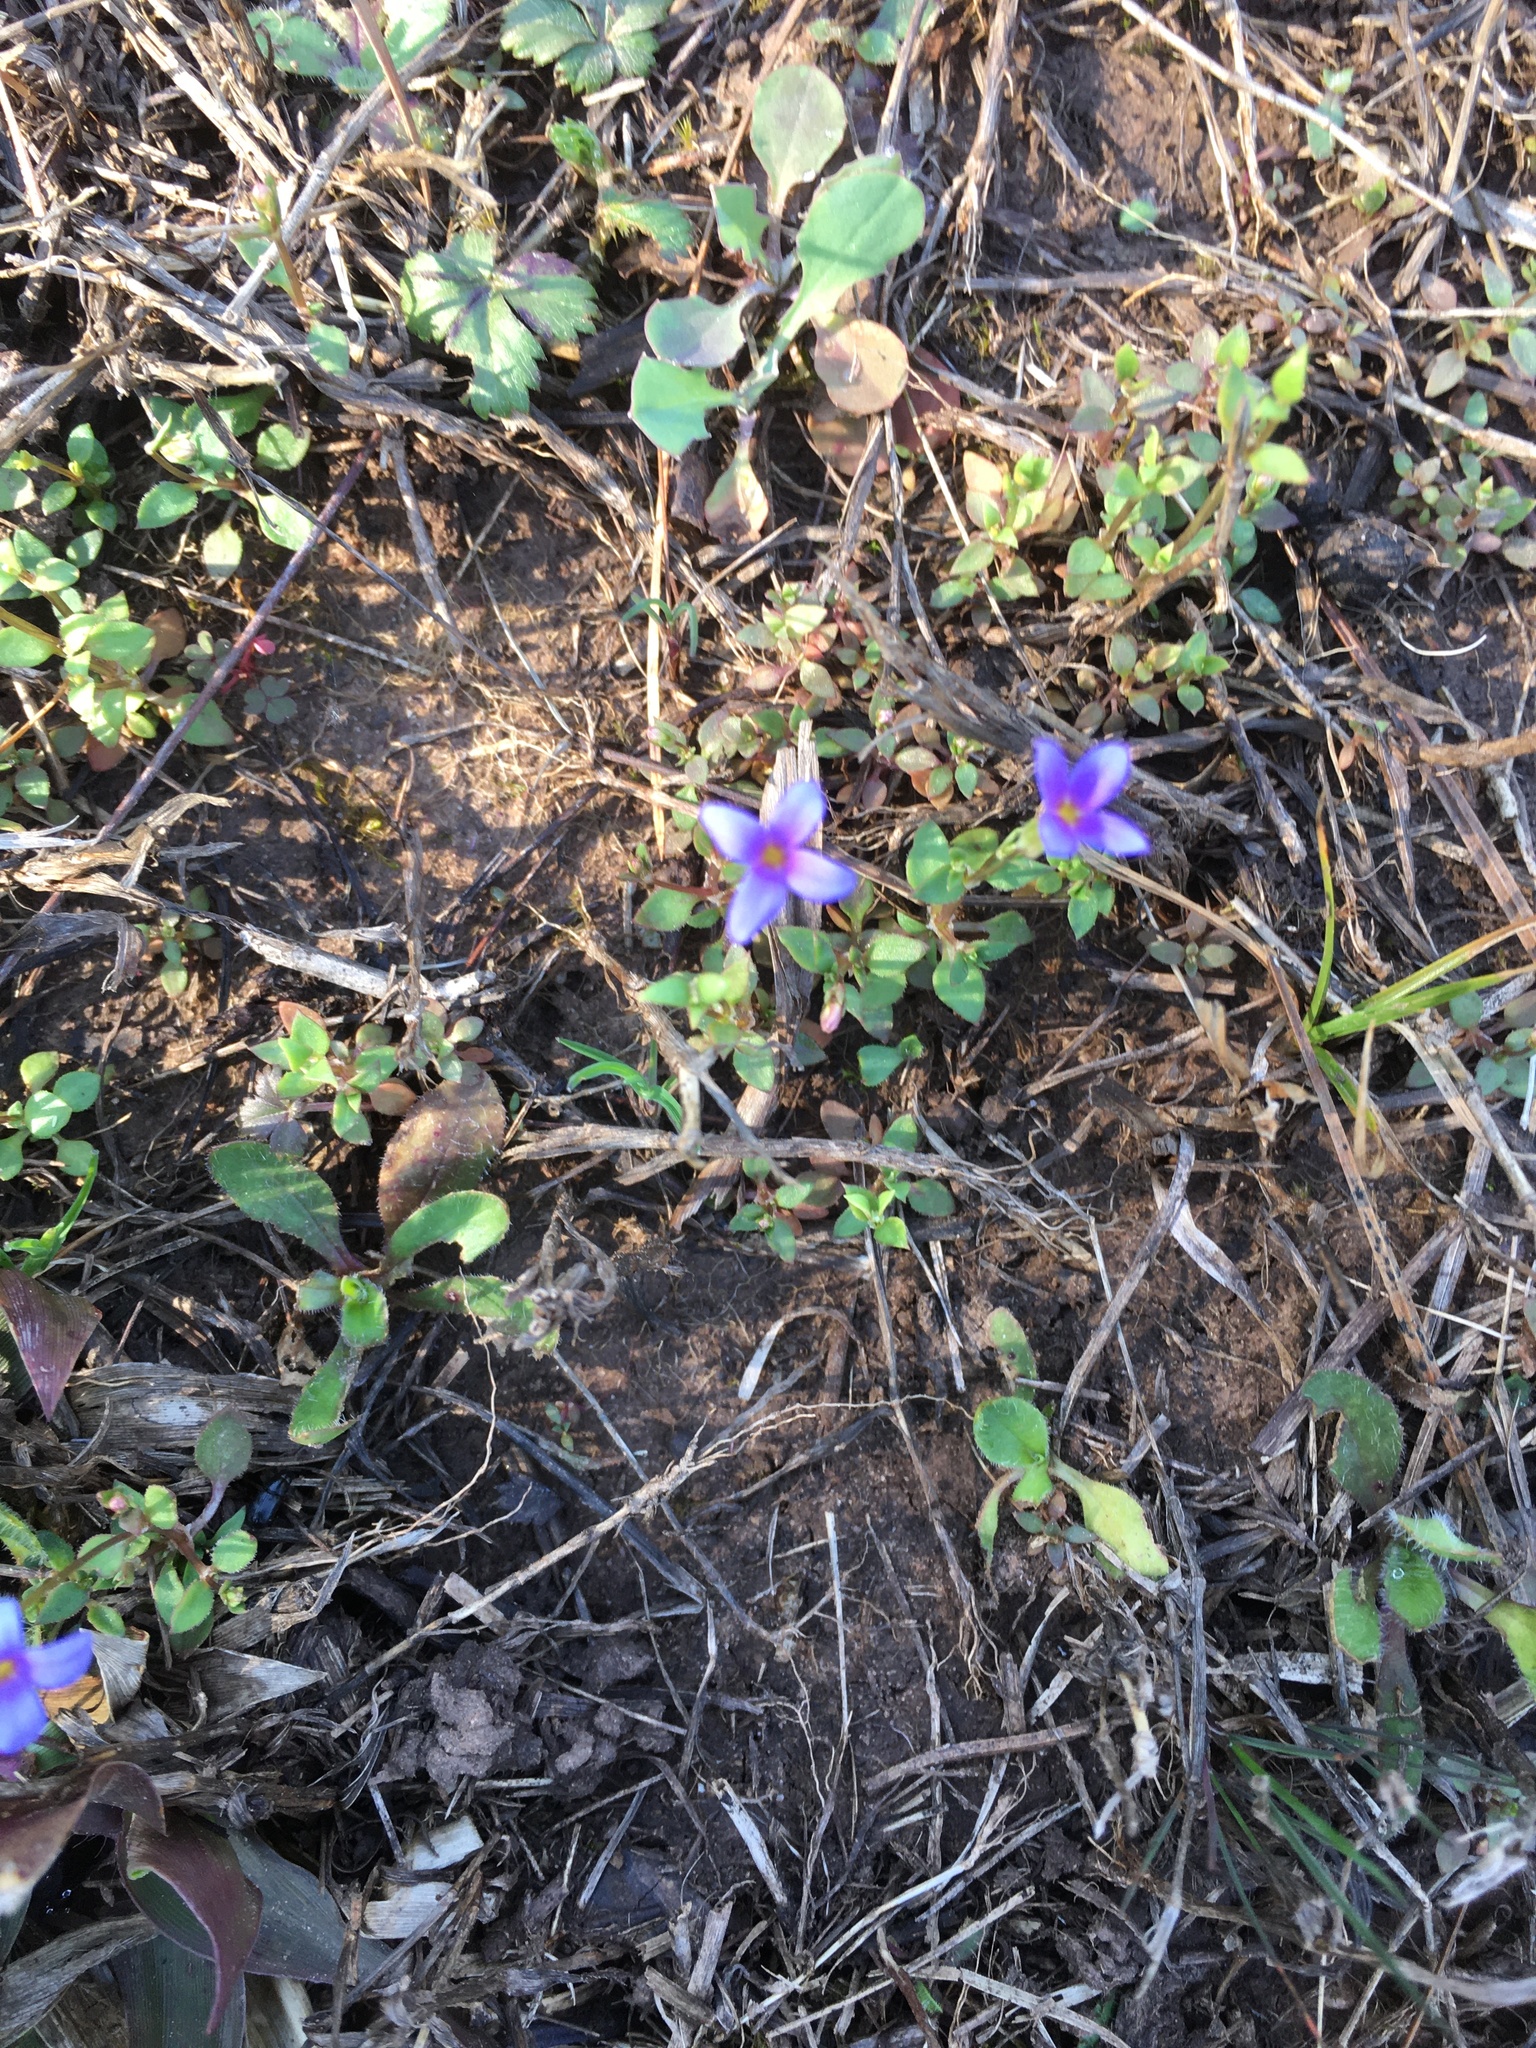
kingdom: Plantae
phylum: Tracheophyta
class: Magnoliopsida
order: Gentianales
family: Rubiaceae
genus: Houstonia
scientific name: Houstonia pusilla
